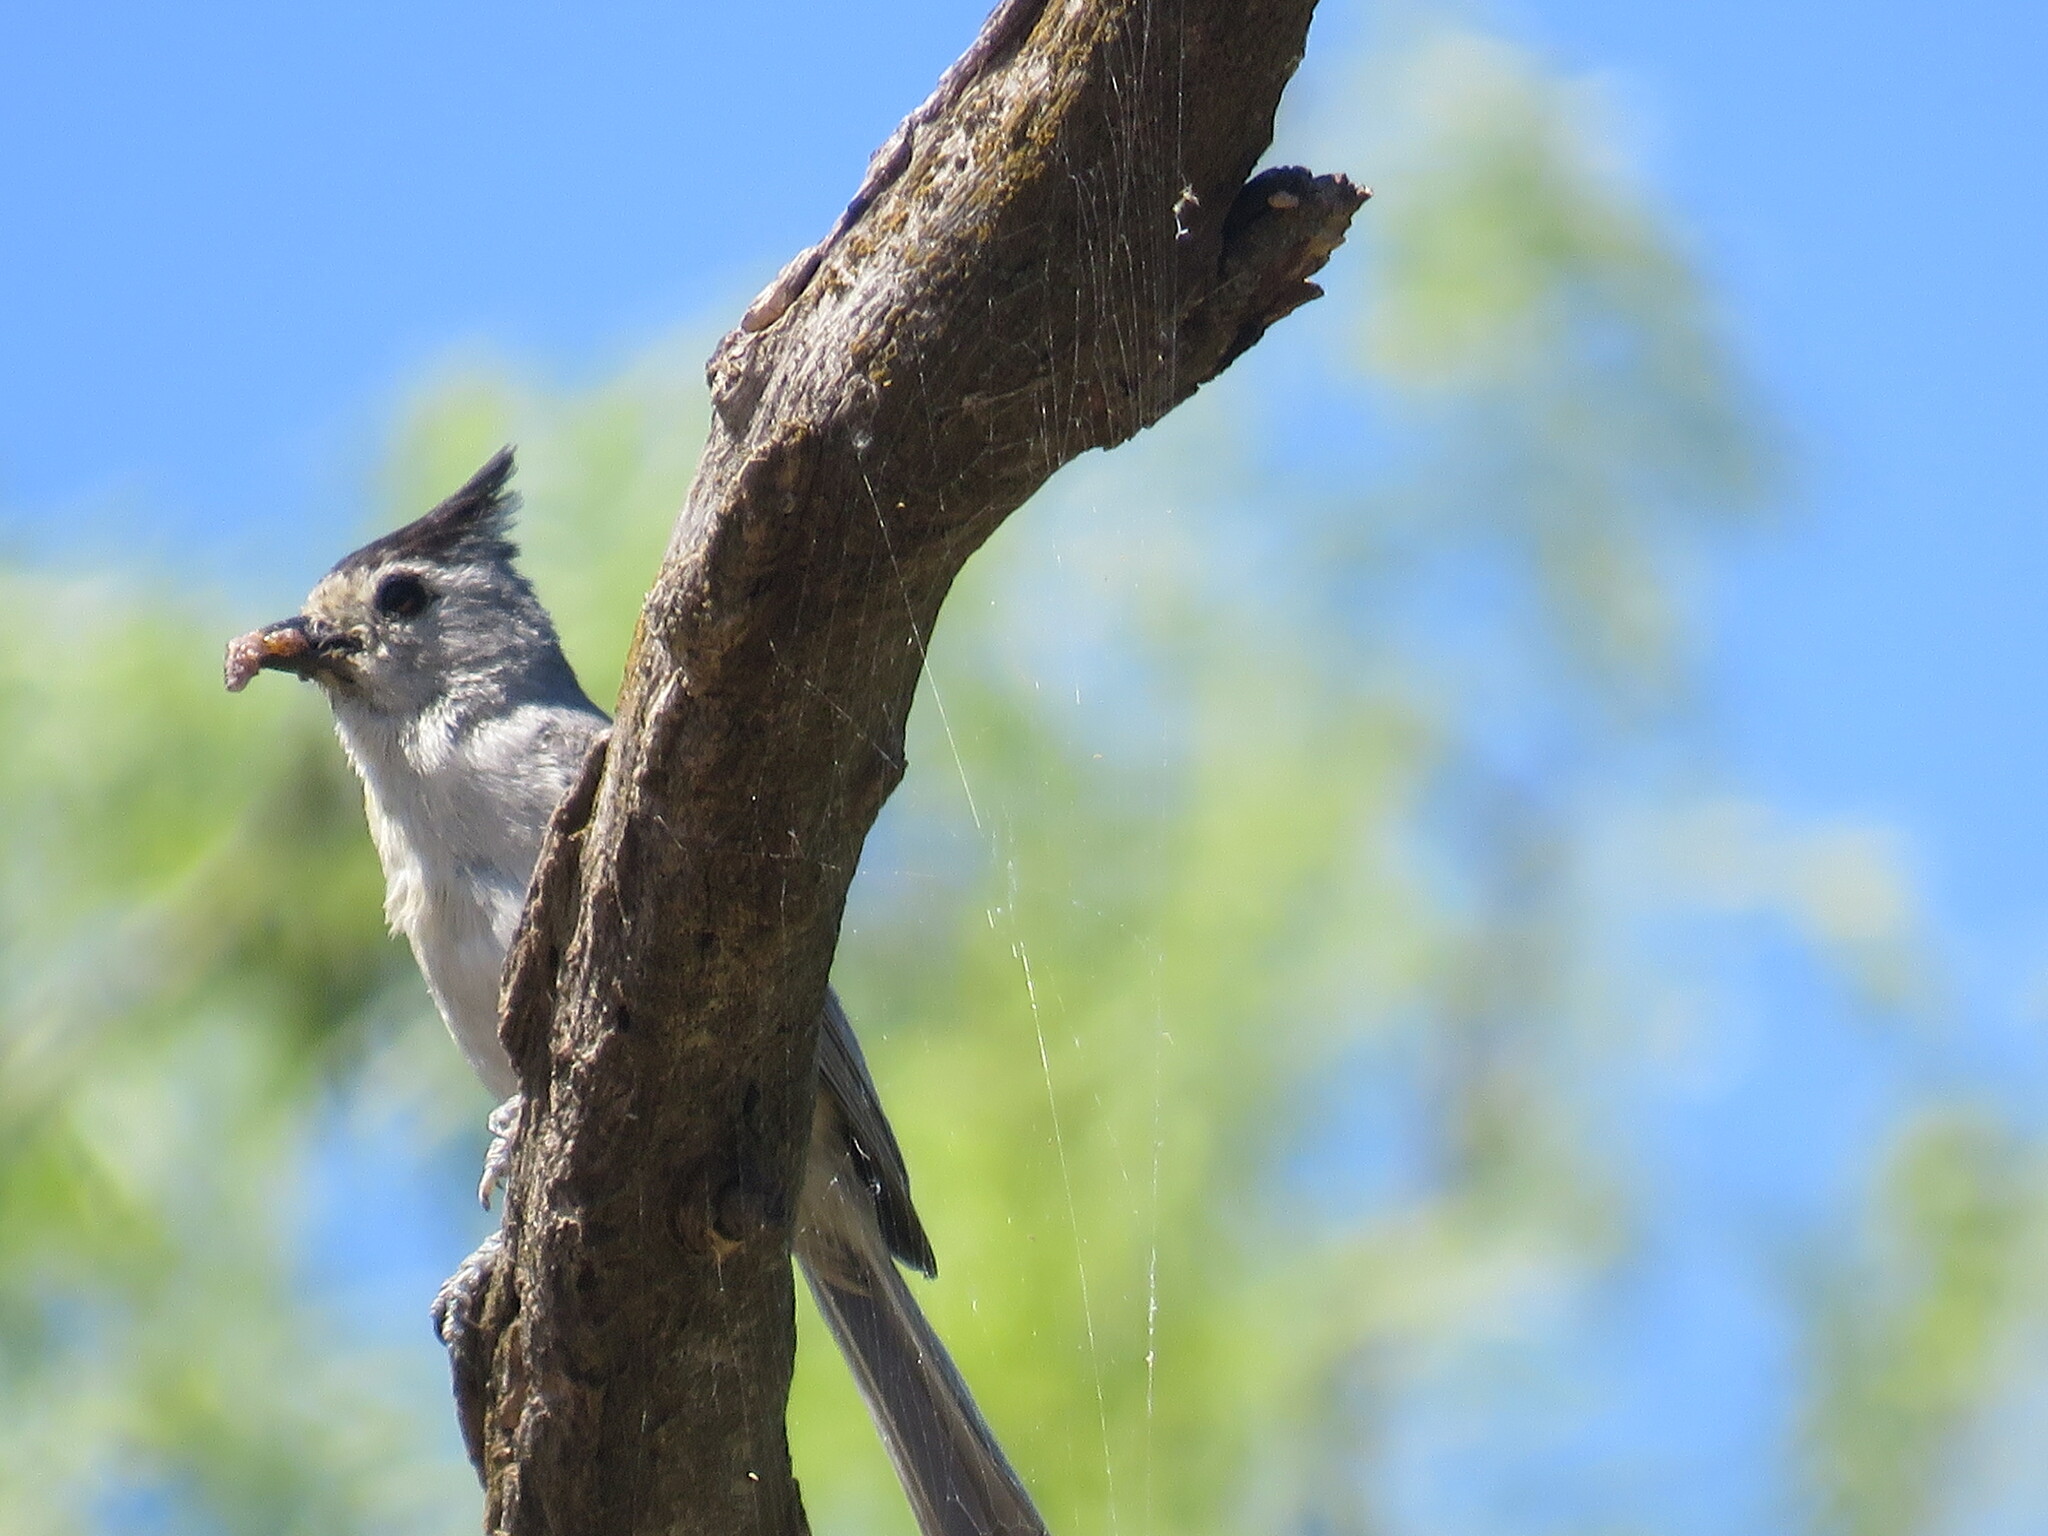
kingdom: Animalia
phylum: Chordata
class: Aves
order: Passeriformes
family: Paridae
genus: Baeolophus
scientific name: Baeolophus atricristatus
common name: Black-crested titmouse
